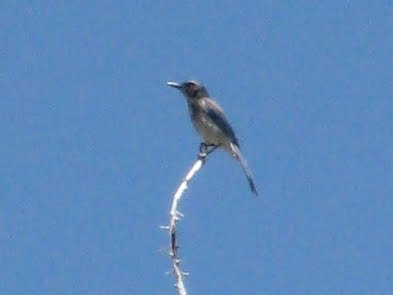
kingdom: Animalia
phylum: Chordata
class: Aves
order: Passeriformes
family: Corvidae
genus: Aphelocoma
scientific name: Aphelocoma californica
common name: California scrub-jay
